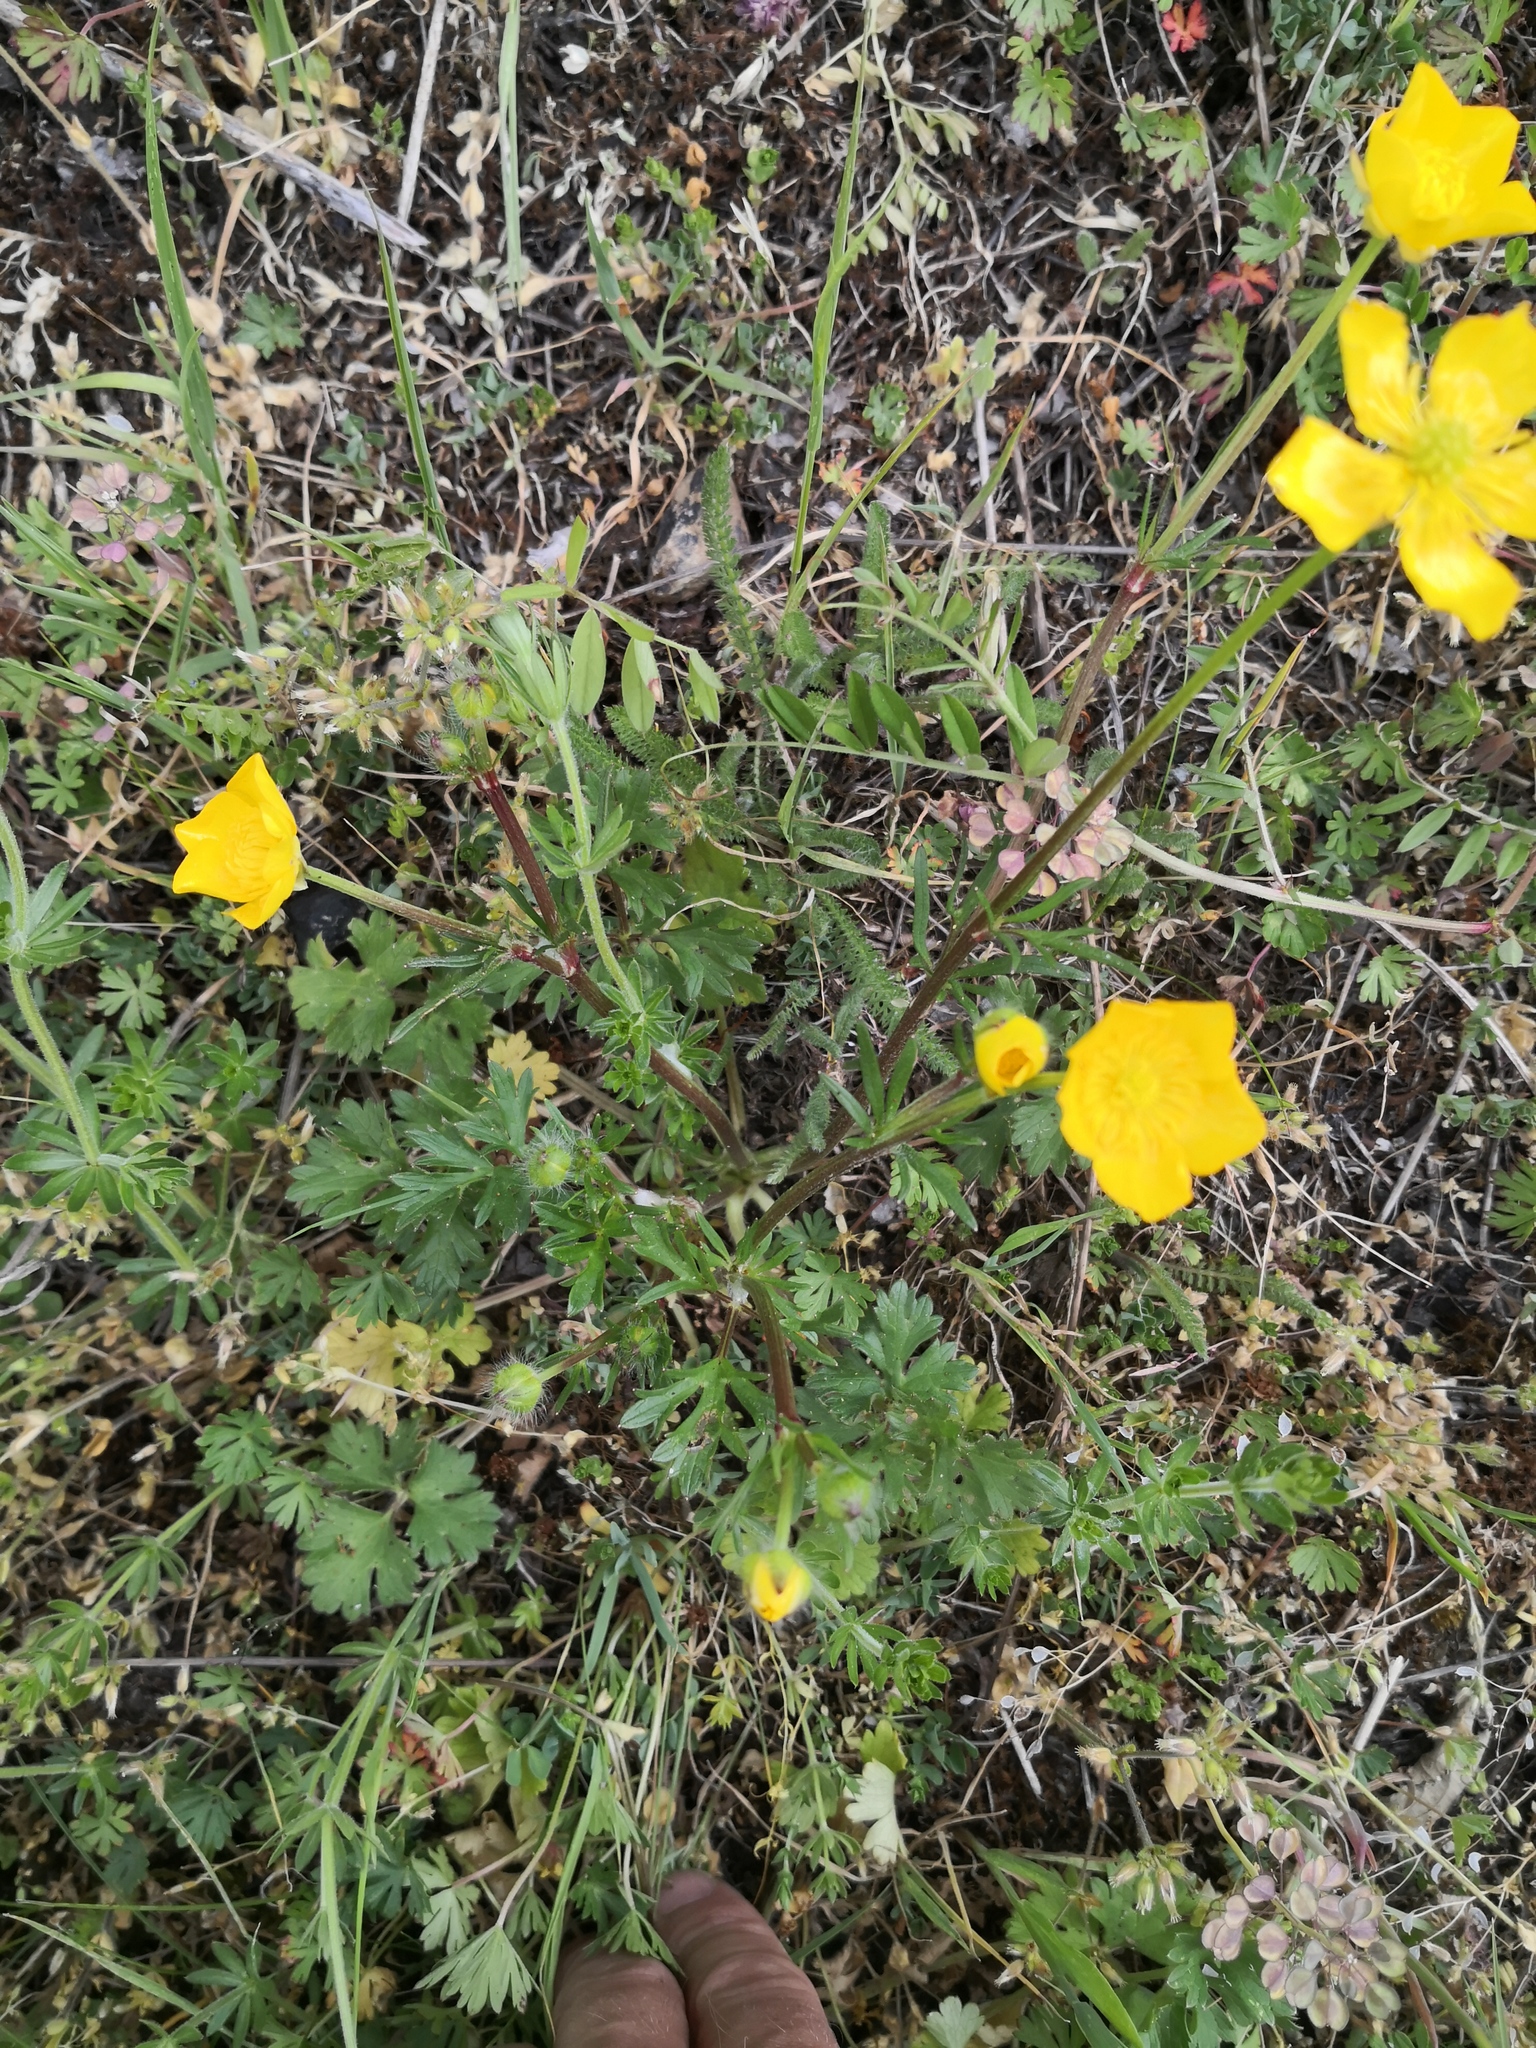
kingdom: Plantae
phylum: Tracheophyta
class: Magnoliopsida
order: Ranunculales
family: Ranunculaceae
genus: Ranunculus
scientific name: Ranunculus bulbosus
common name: Bulbous buttercup
